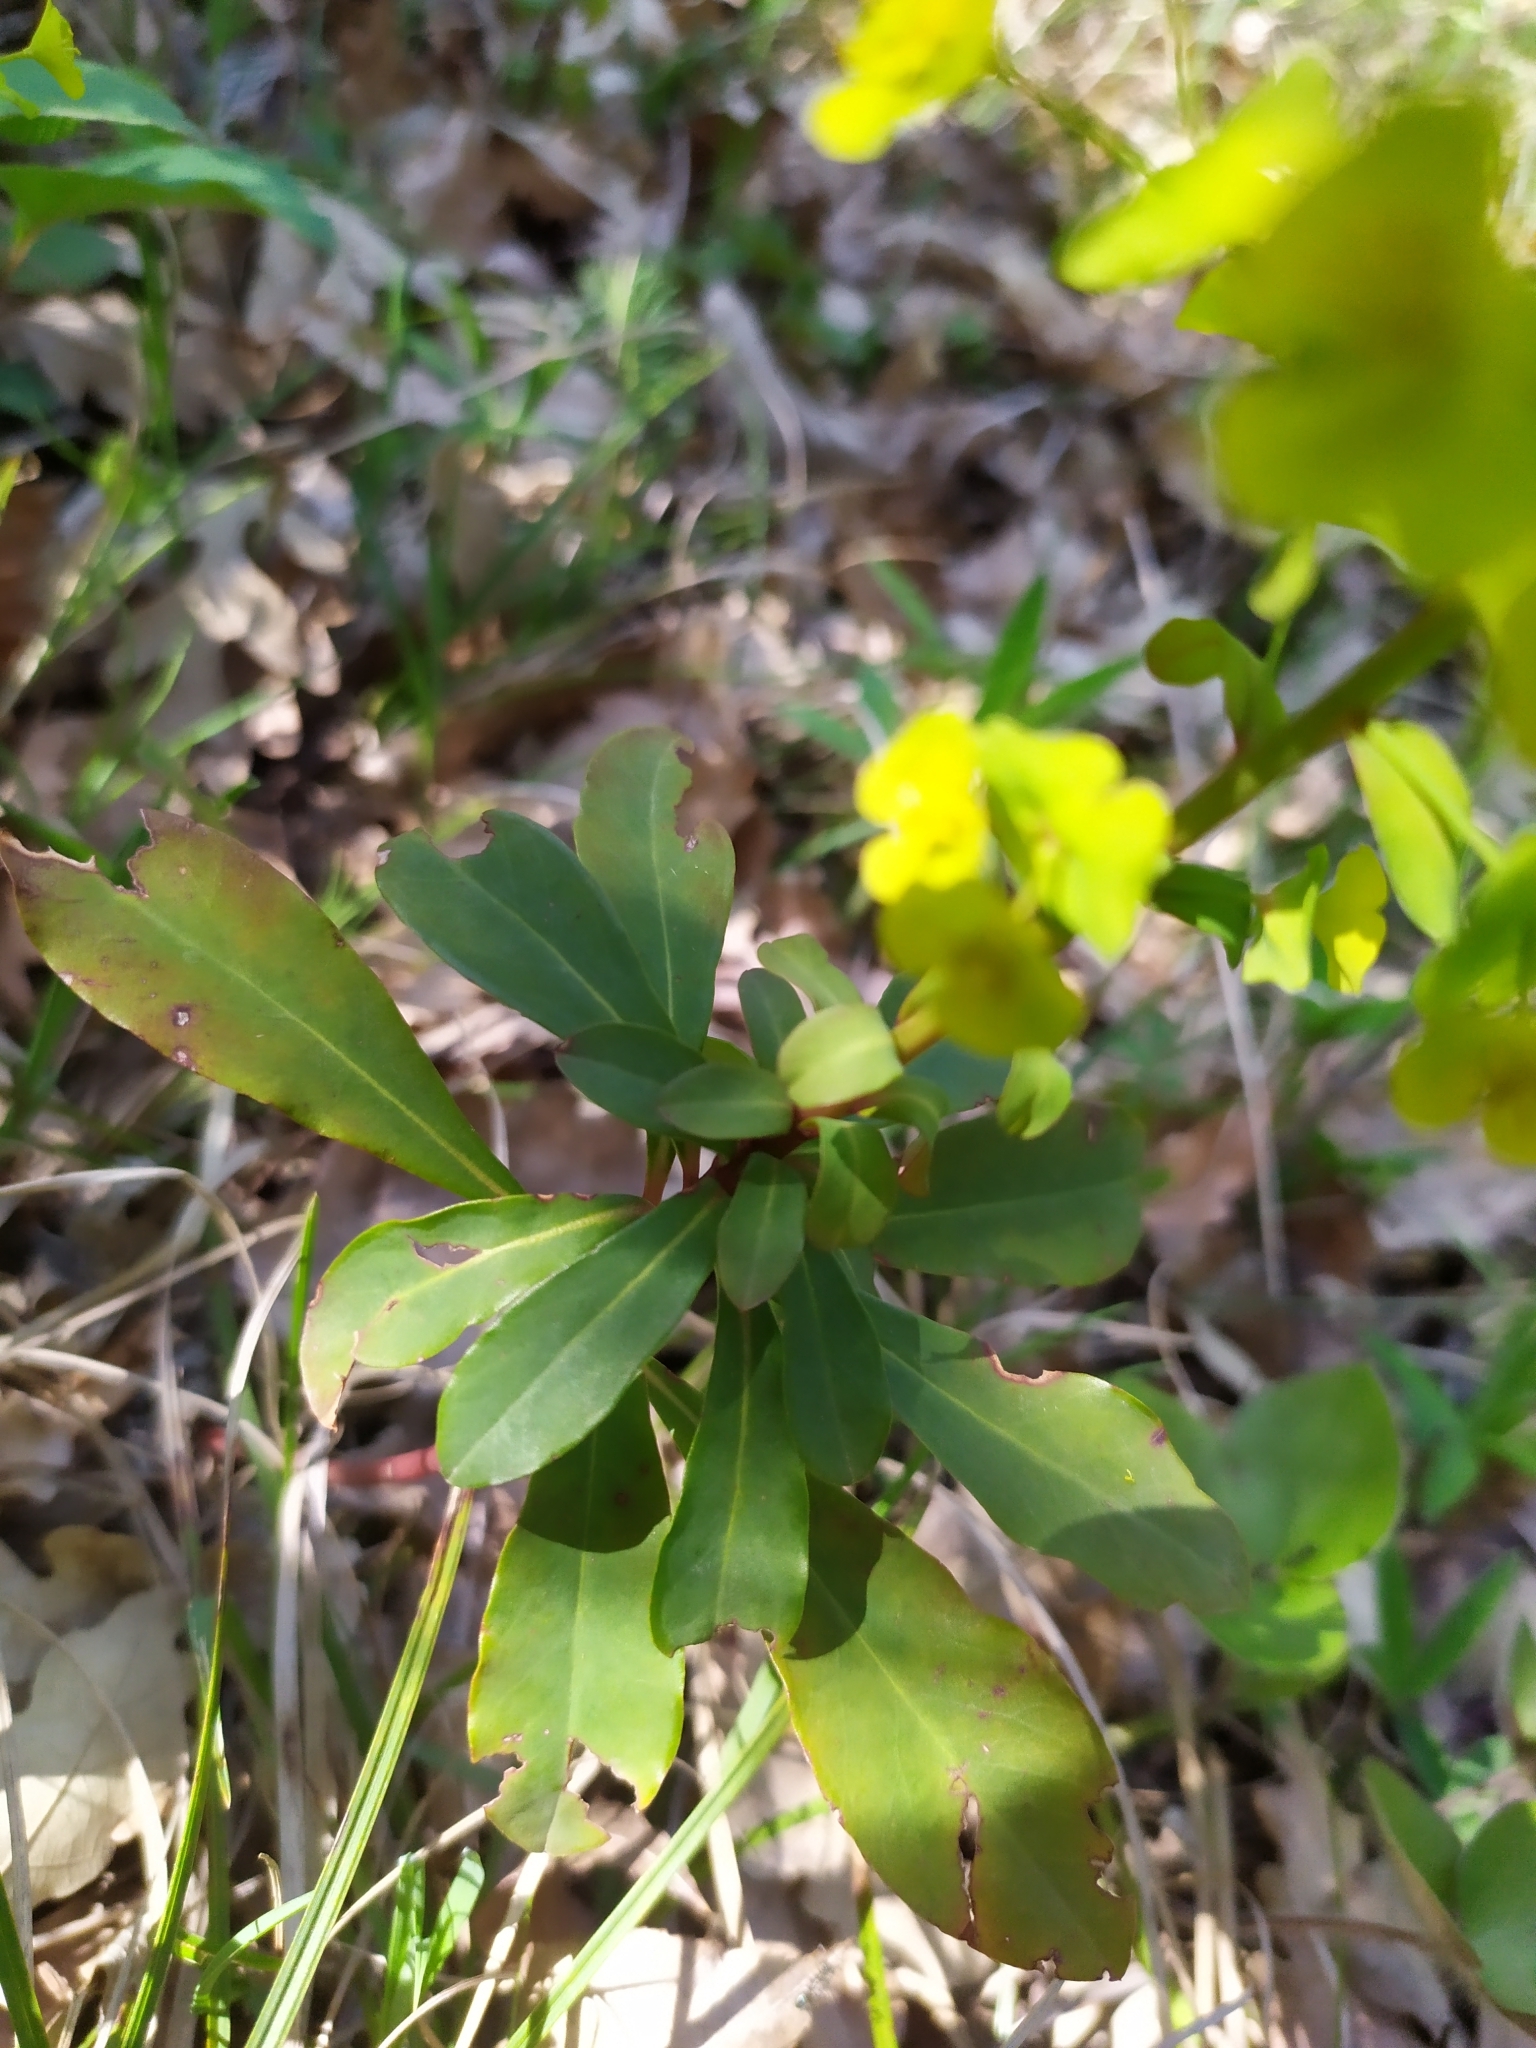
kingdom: Plantae
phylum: Tracheophyta
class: Magnoliopsida
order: Malpighiales
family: Euphorbiaceae
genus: Euphorbia
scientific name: Euphorbia amygdaloides
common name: Wood spurge
